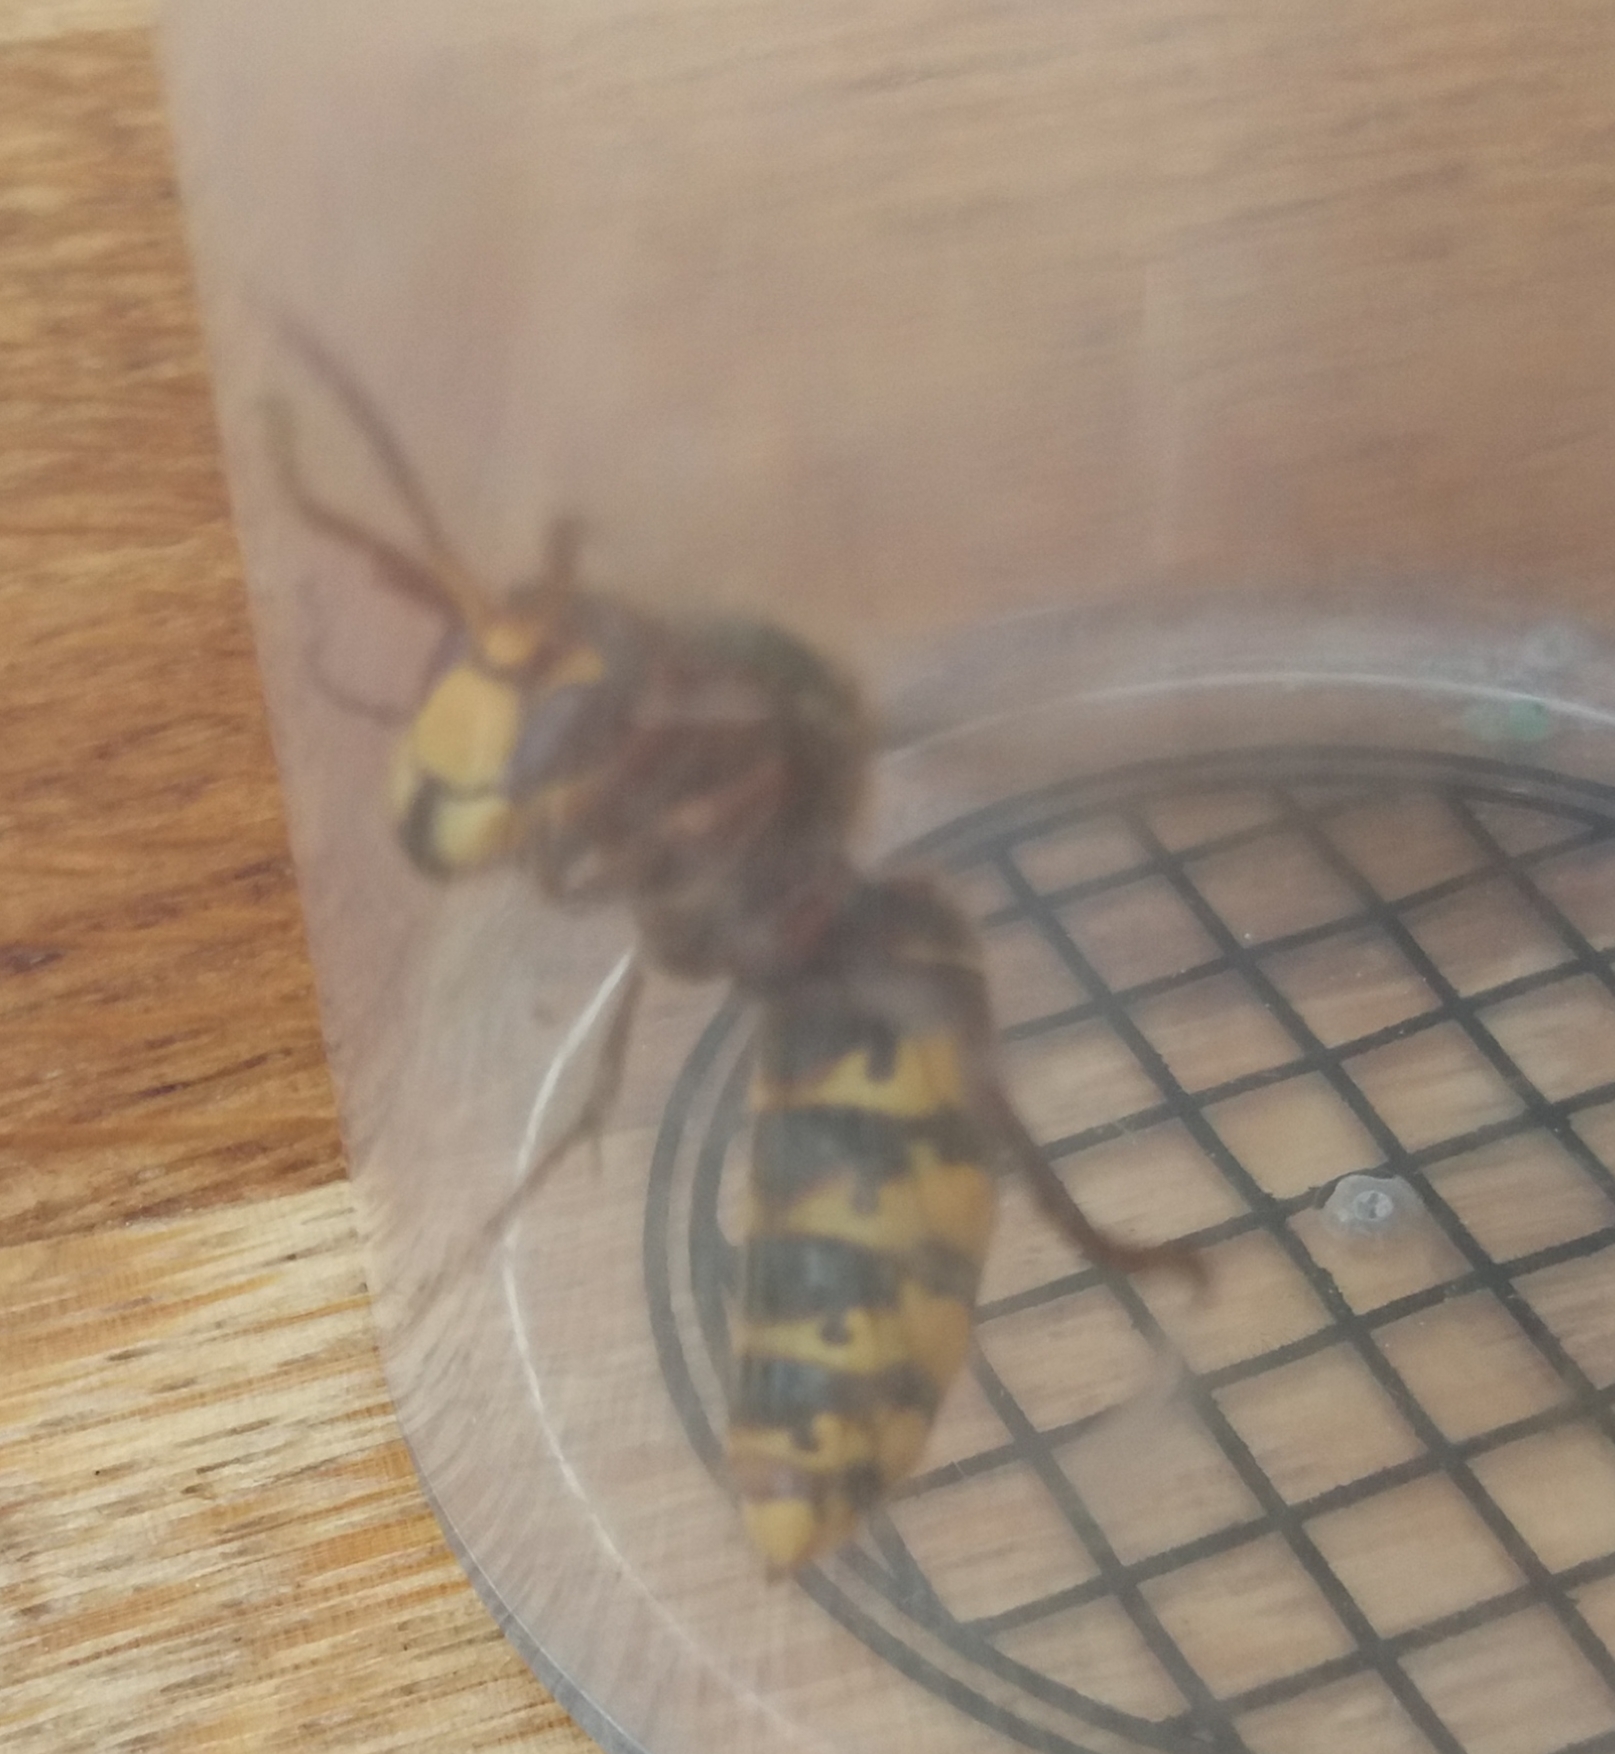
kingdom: Animalia
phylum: Arthropoda
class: Insecta
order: Hymenoptera
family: Vespidae
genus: Vespa
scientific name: Vespa crabro
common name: Hornet
